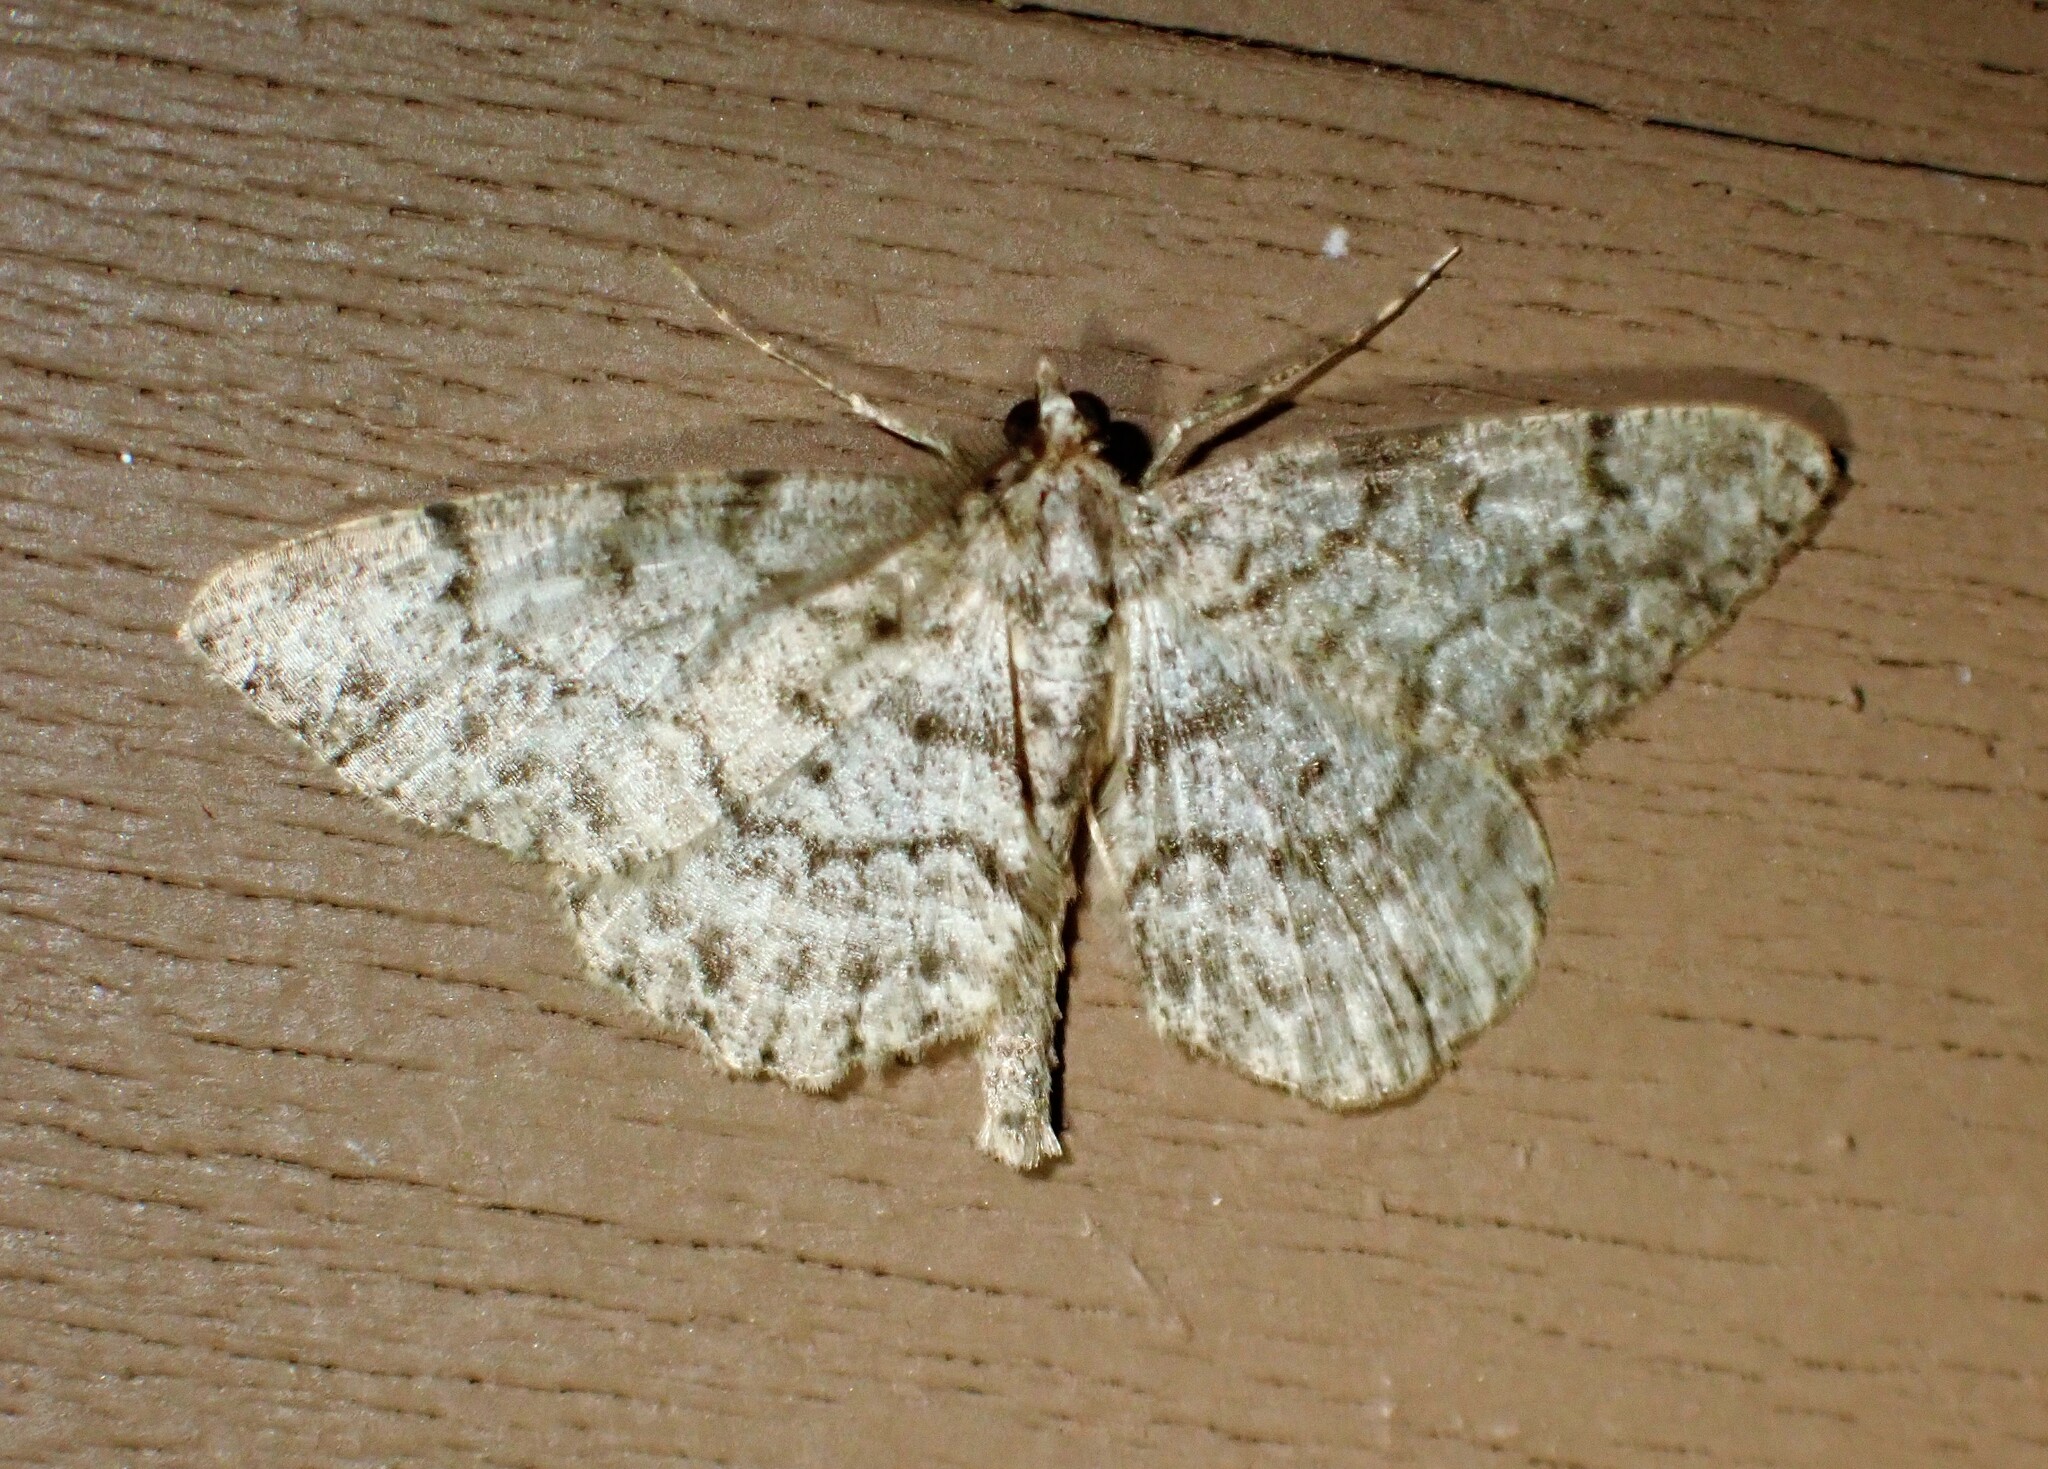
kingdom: Animalia
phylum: Arthropoda
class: Insecta
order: Lepidoptera
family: Geometridae
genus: Protoboarmia
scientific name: Protoboarmia porcelaria
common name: Porcelain gray
